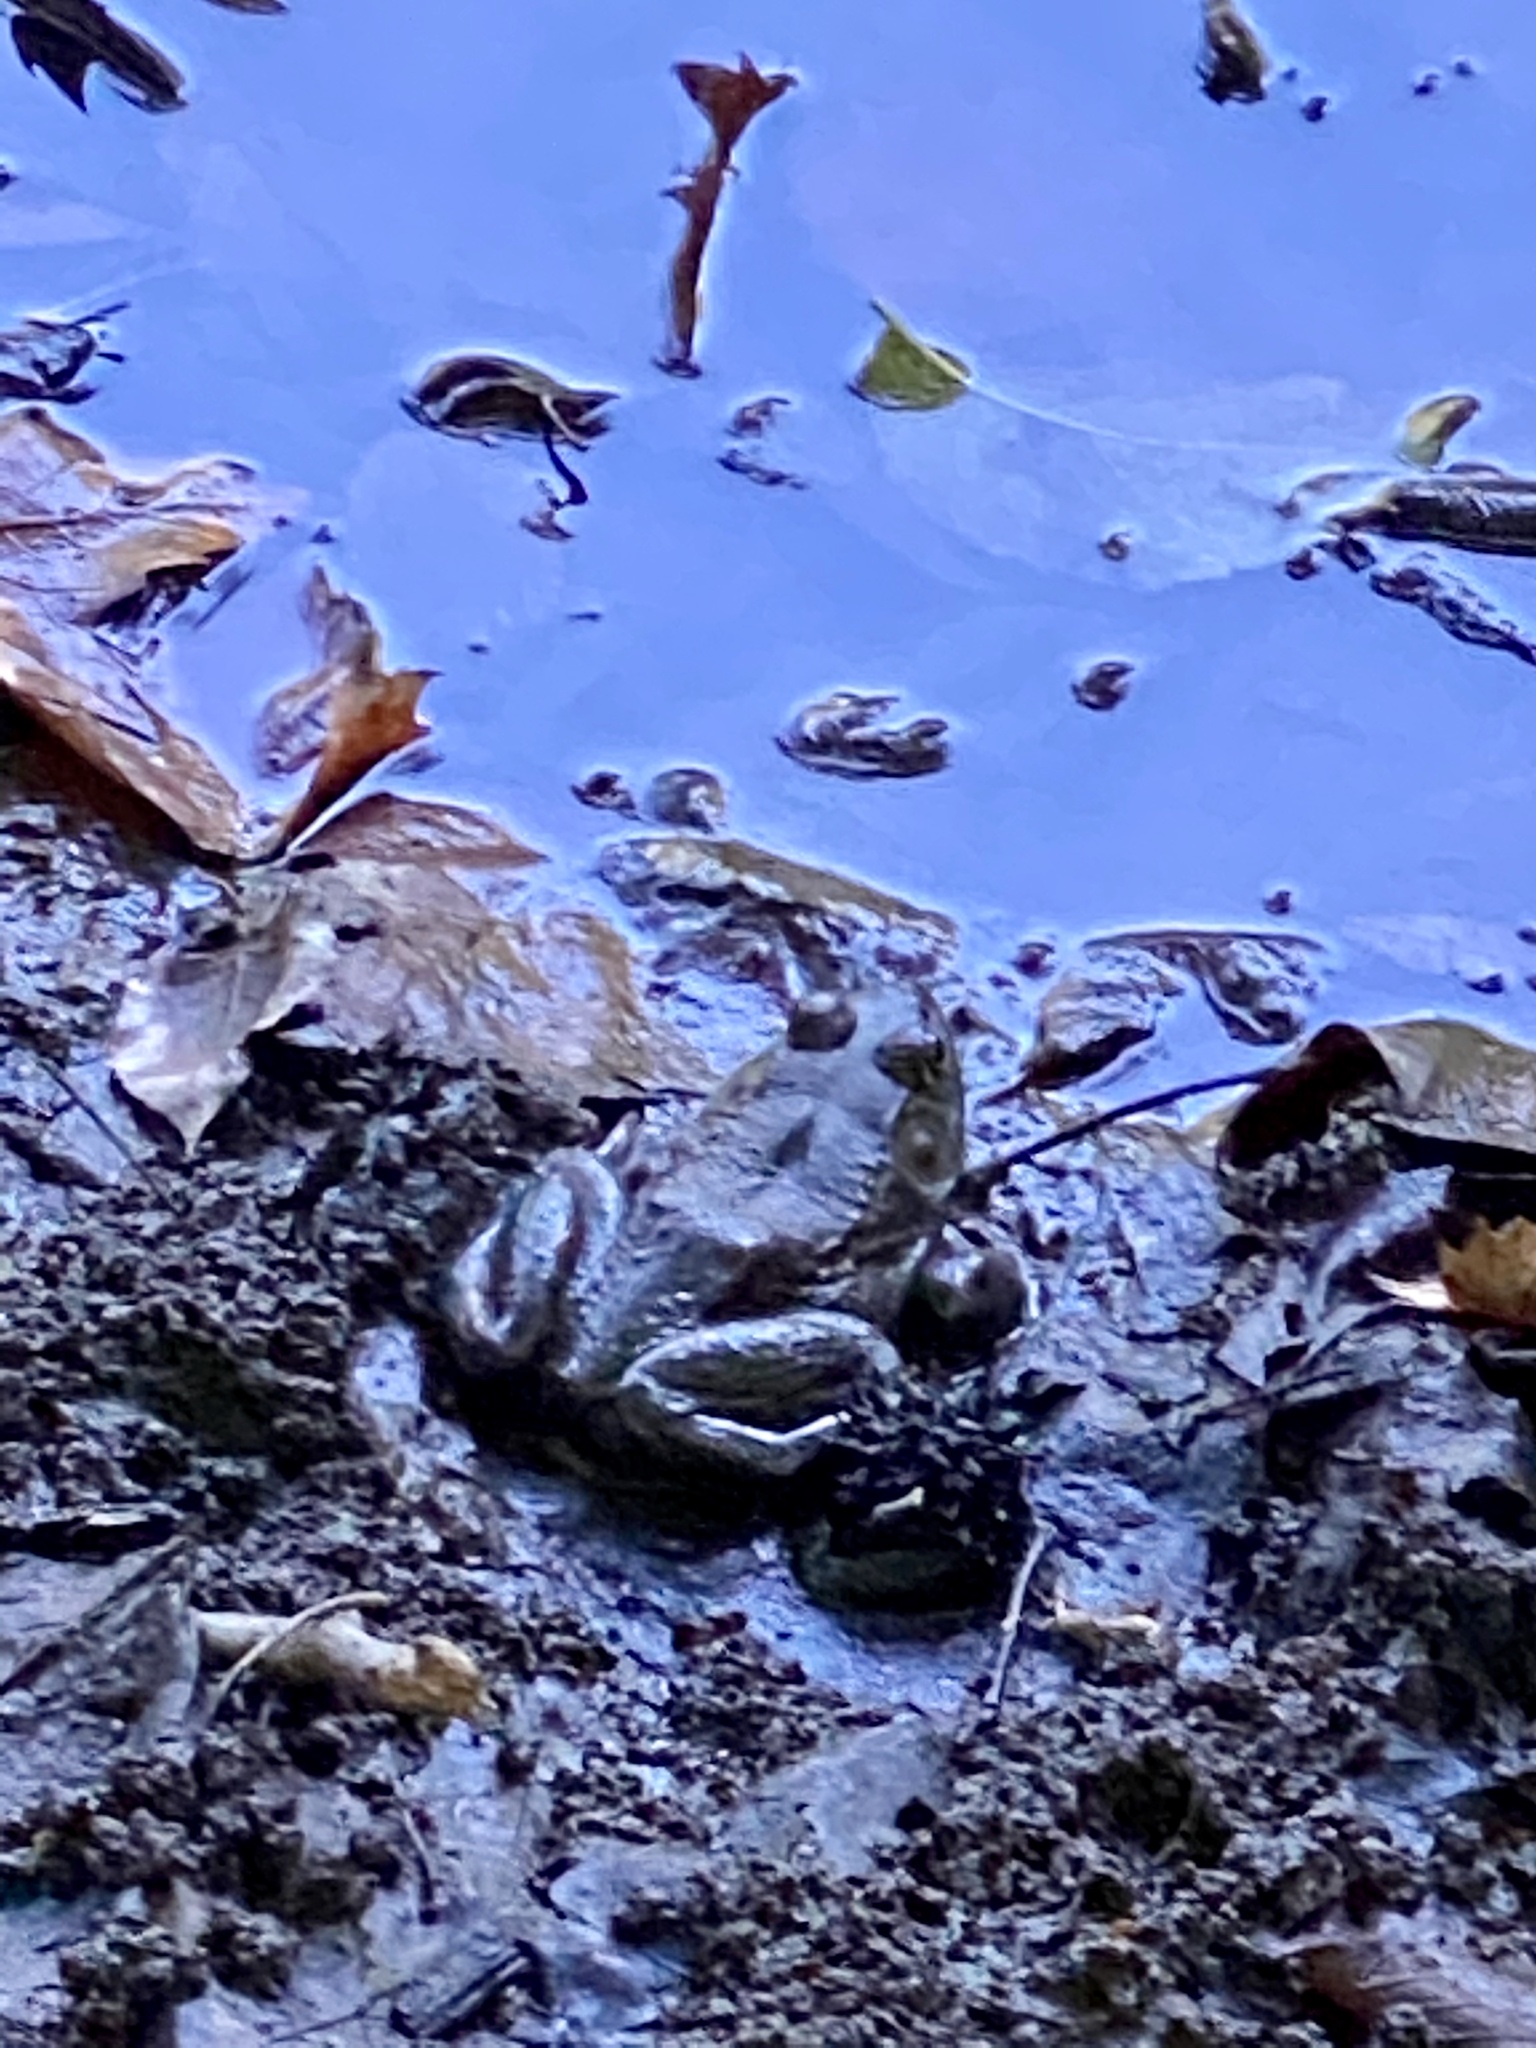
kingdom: Animalia
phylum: Chordata
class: Amphibia
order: Anura
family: Ranidae
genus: Lithobates
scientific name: Lithobates catesbeianus
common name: American bullfrog
